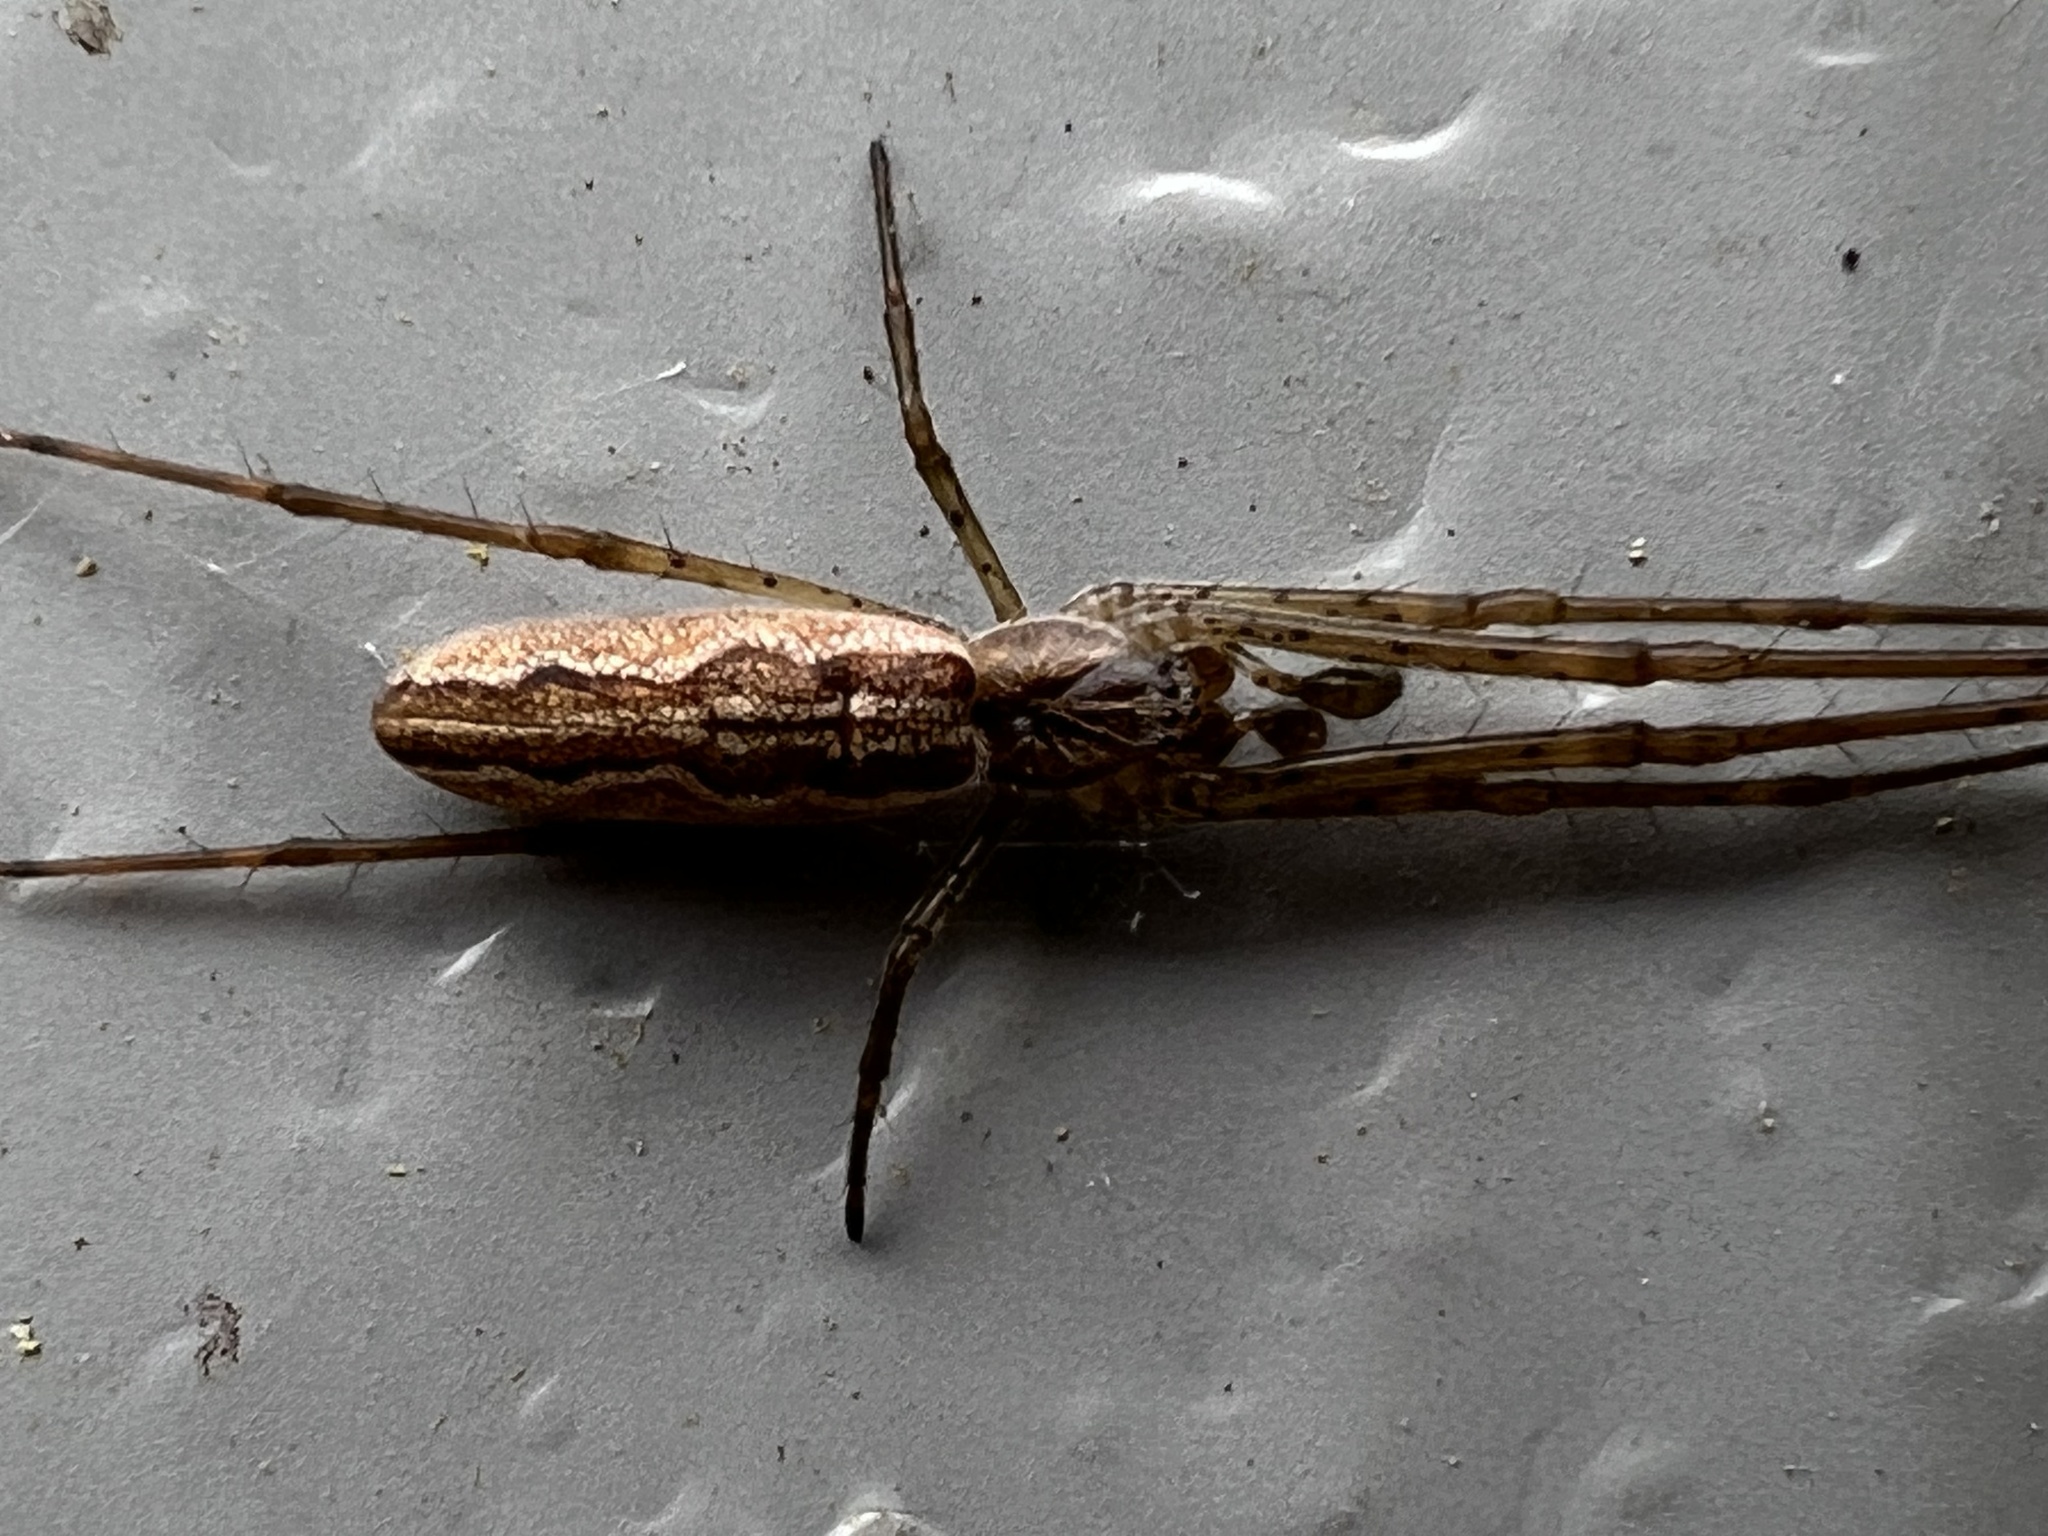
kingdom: Animalia
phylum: Arthropoda
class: Arachnida
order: Araneae
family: Tetragnathidae
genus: Tetragnatha
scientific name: Tetragnatha versicolor
